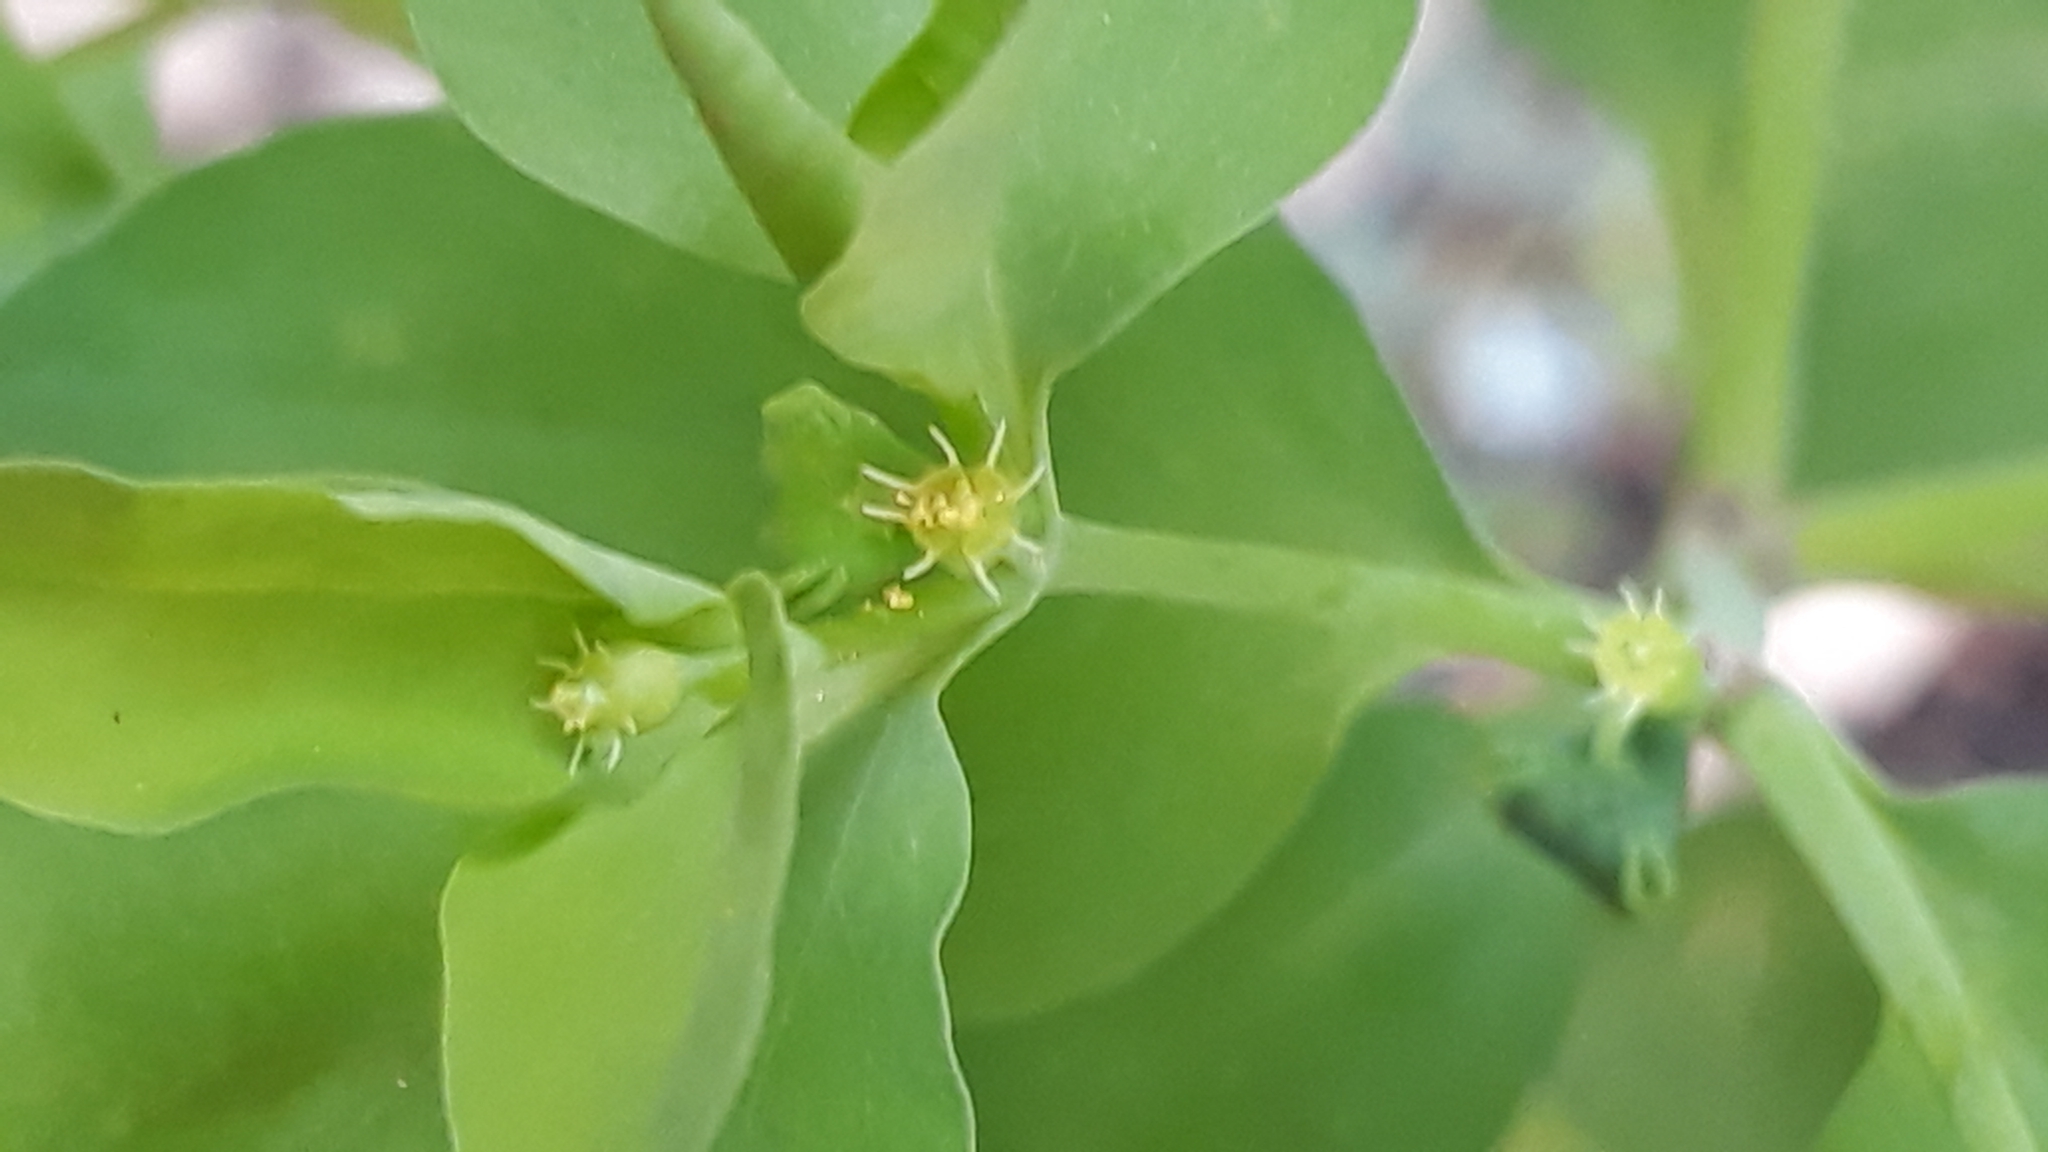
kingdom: Plantae
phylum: Tracheophyta
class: Magnoliopsida
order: Malpighiales
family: Euphorbiaceae
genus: Euphorbia
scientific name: Euphorbia peplus
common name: Petty spurge
